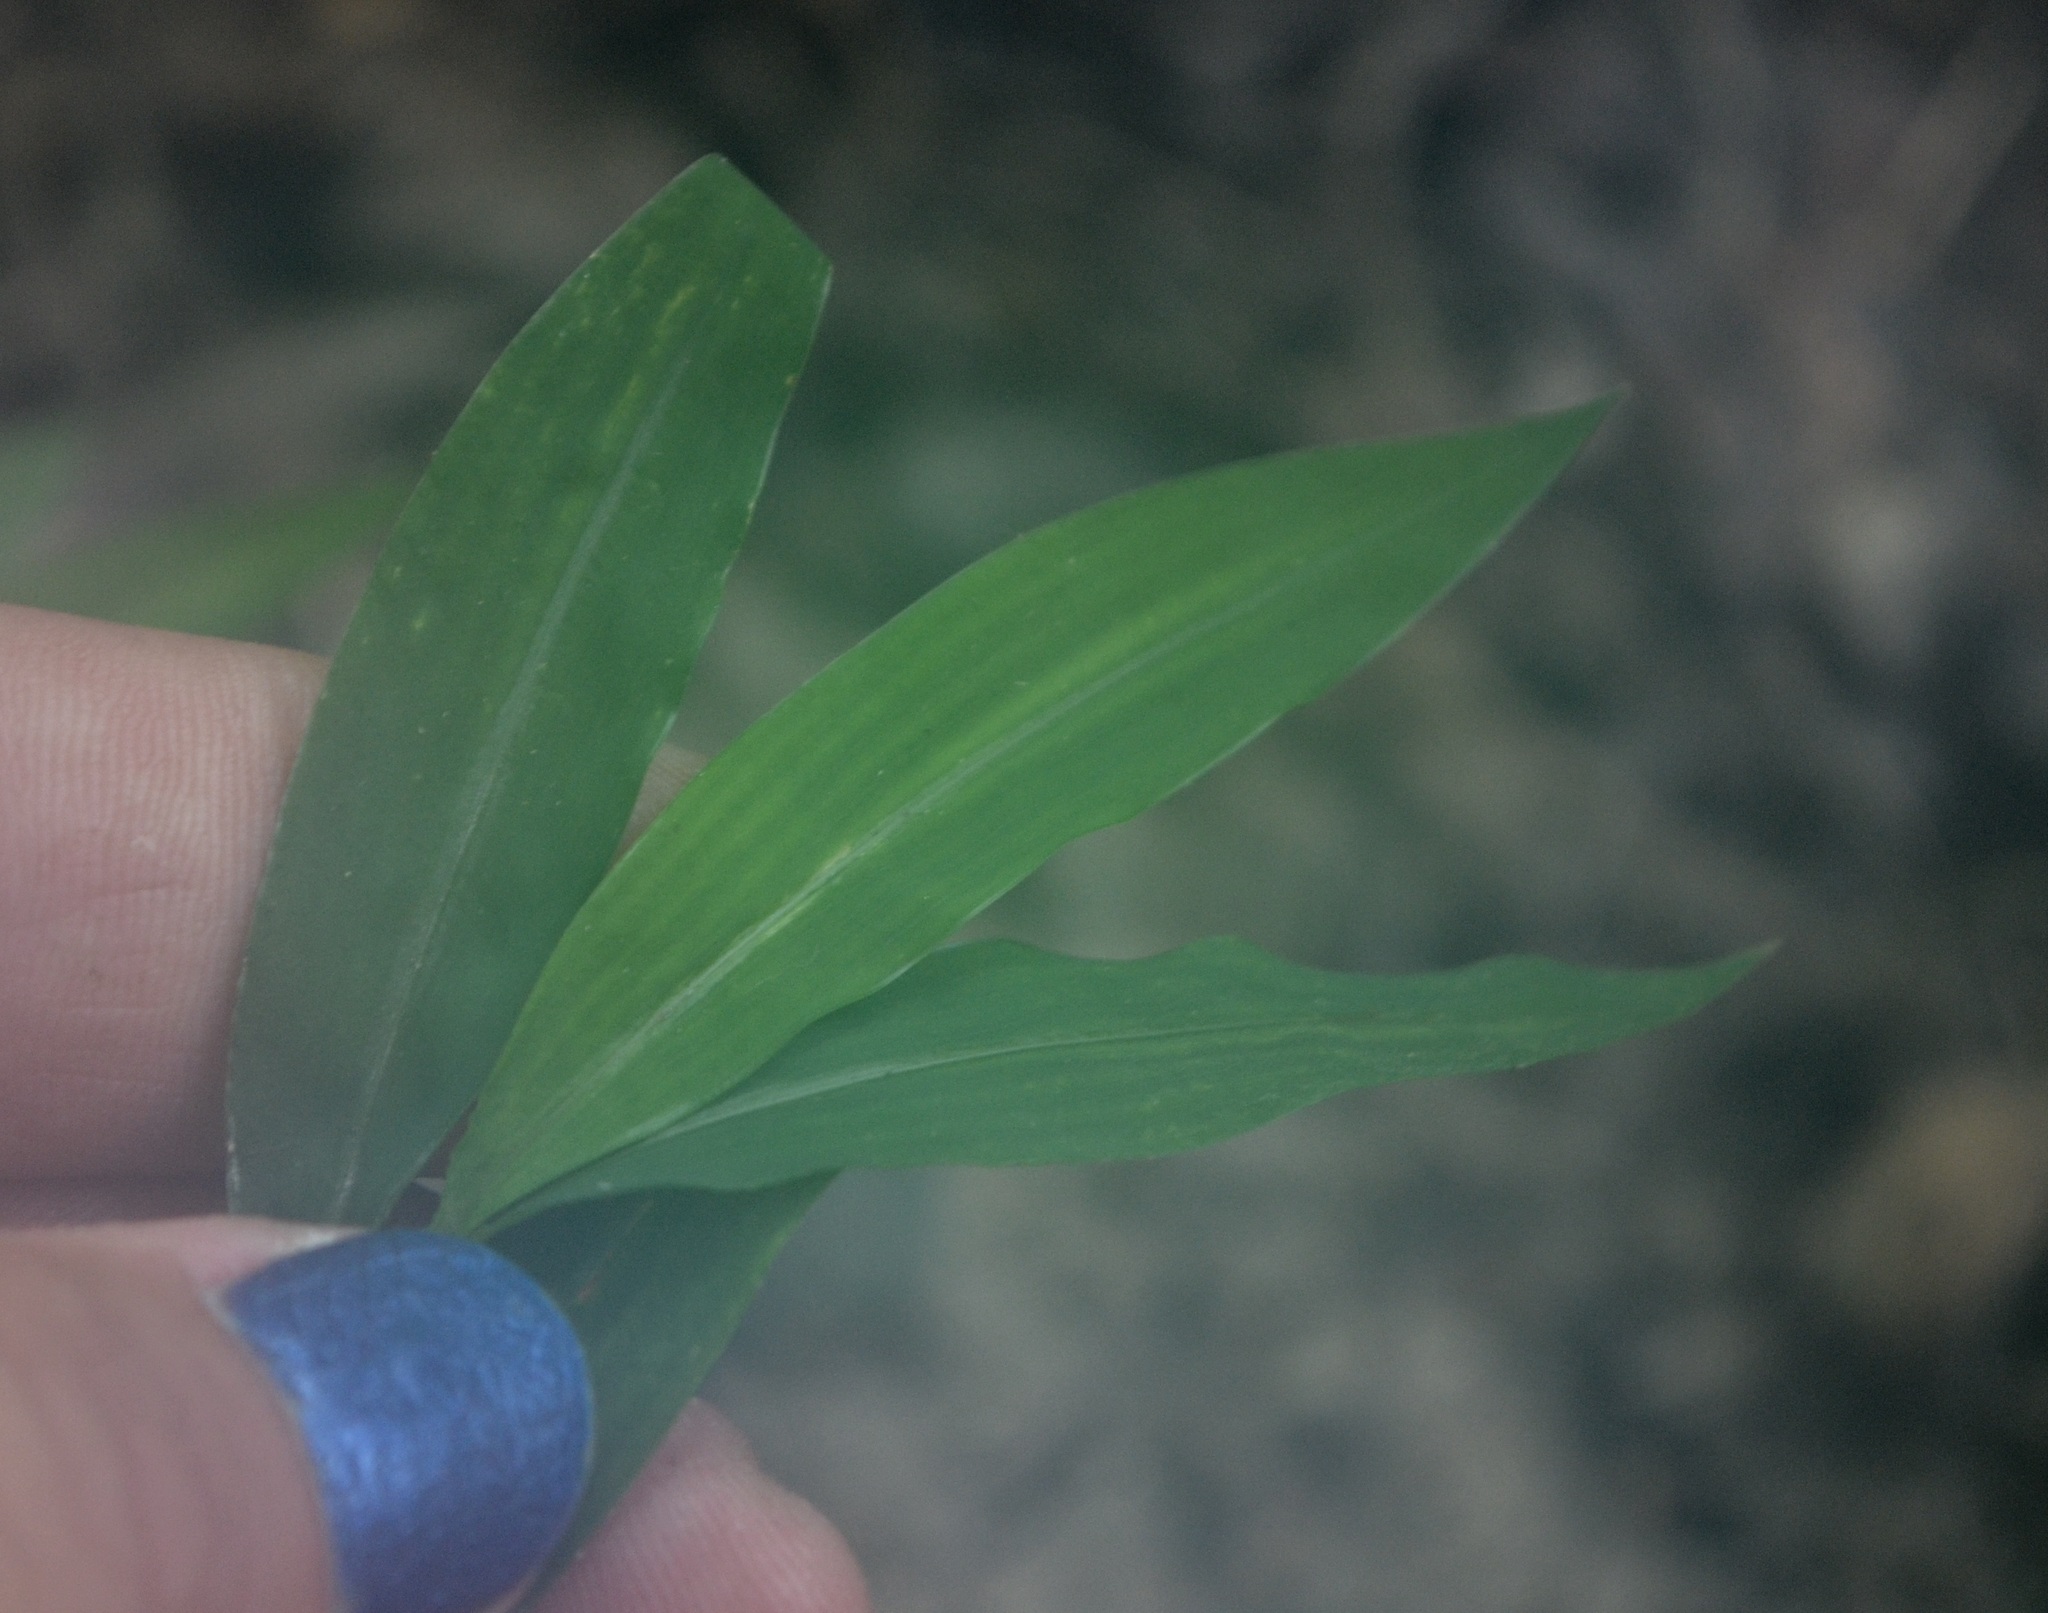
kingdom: Plantae
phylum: Tracheophyta
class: Liliopsida
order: Poales
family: Poaceae
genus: Microstegium
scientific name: Microstegium vimineum
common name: Japanese stiltgrass
